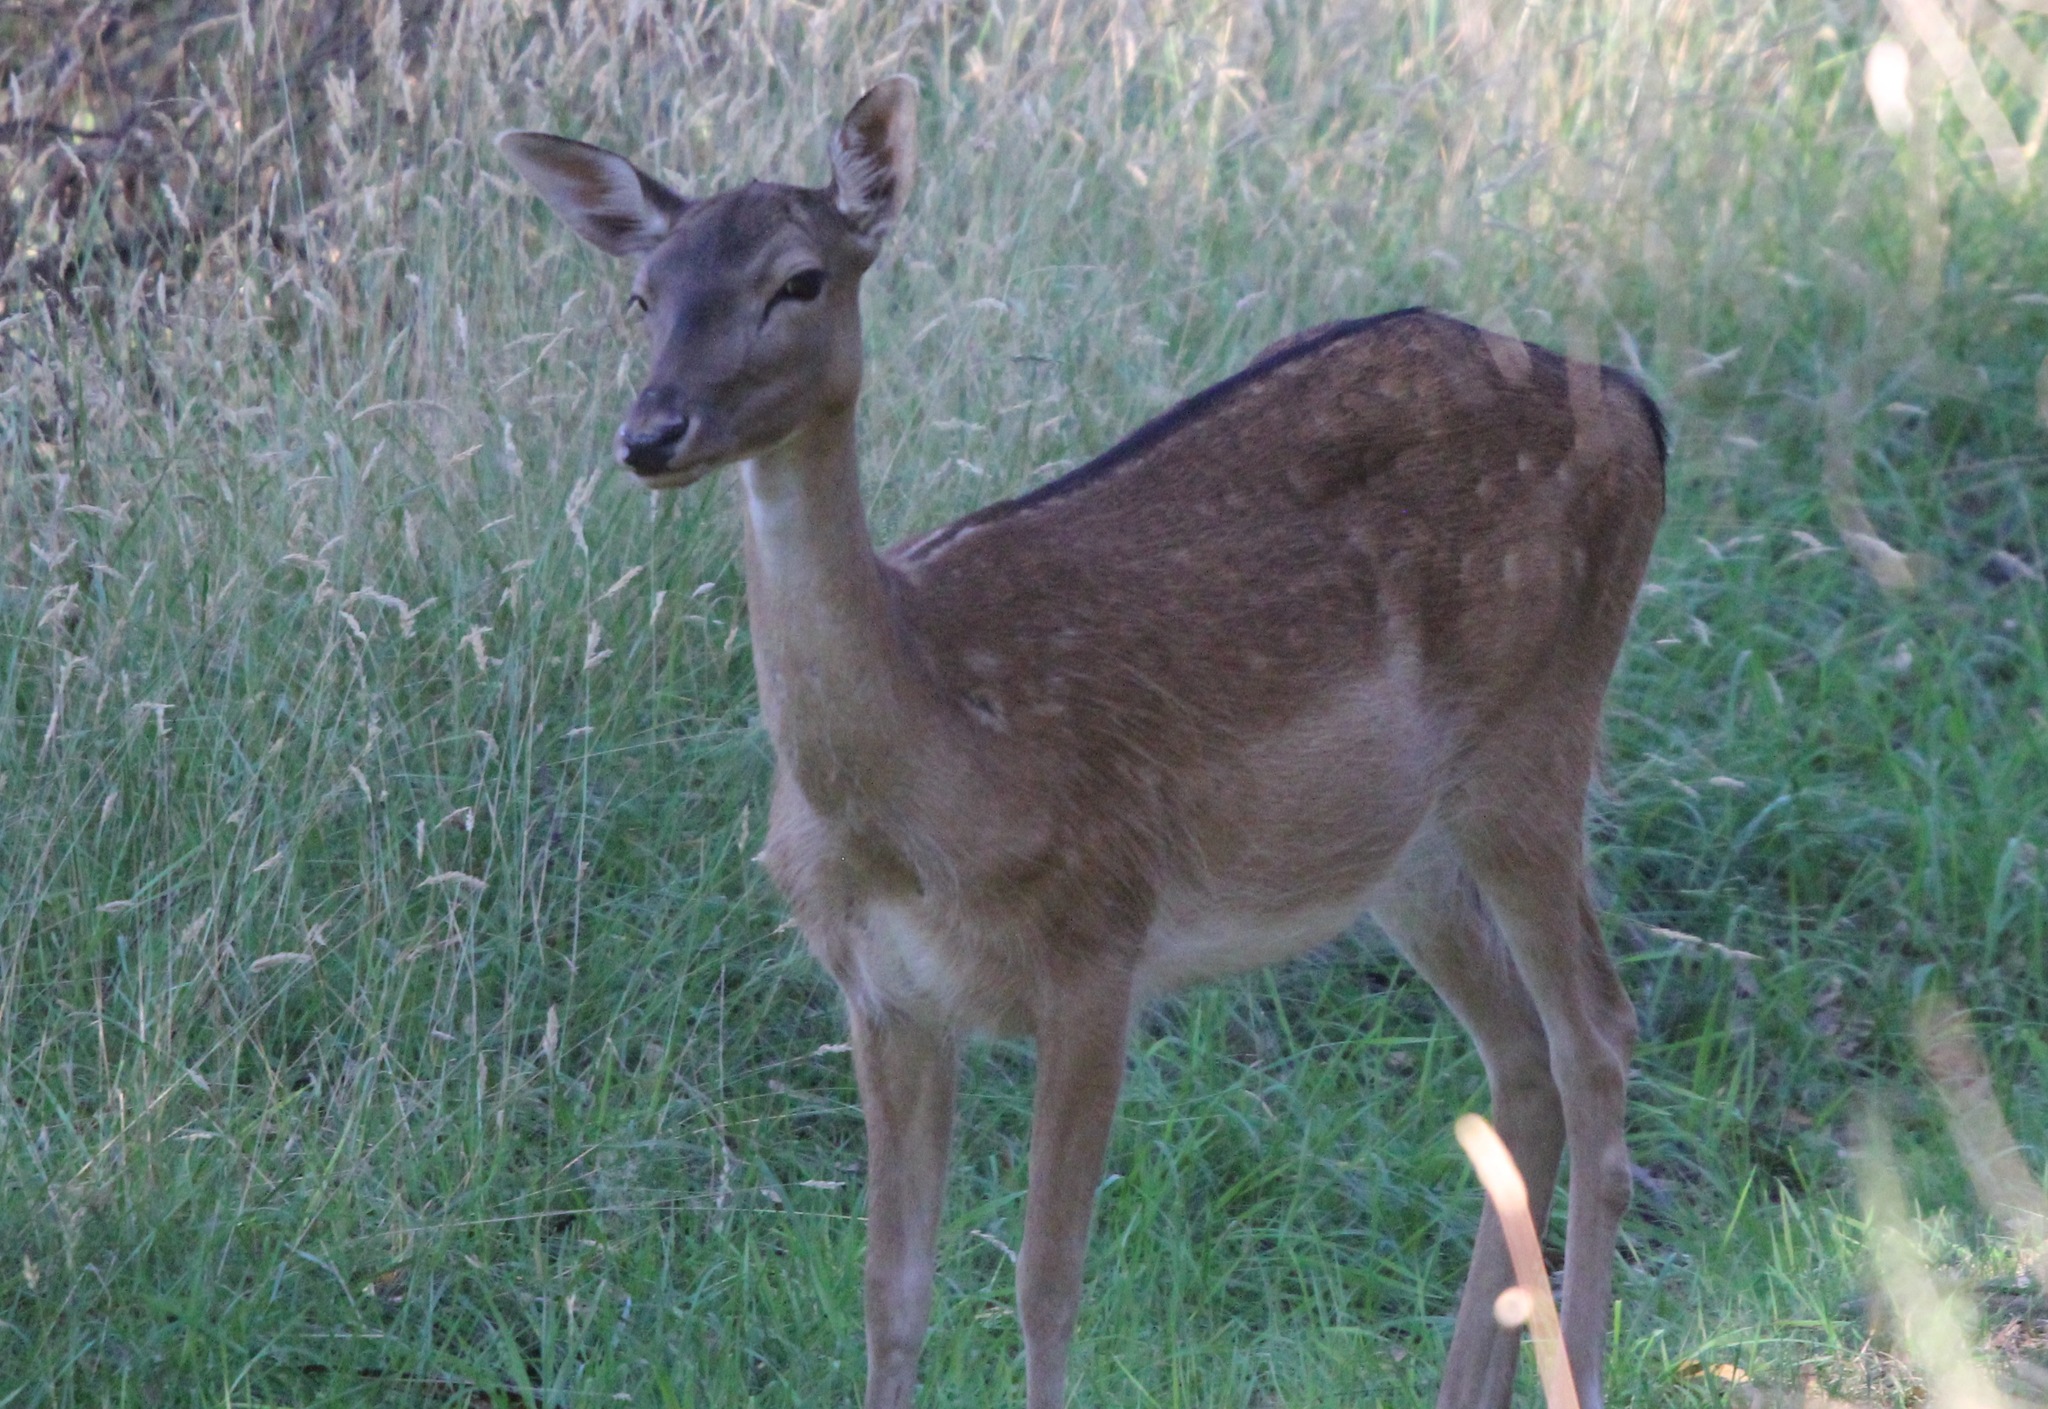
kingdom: Animalia
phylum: Chordata
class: Mammalia
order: Artiodactyla
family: Cervidae
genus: Dama
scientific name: Dama dama
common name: Fallow deer
